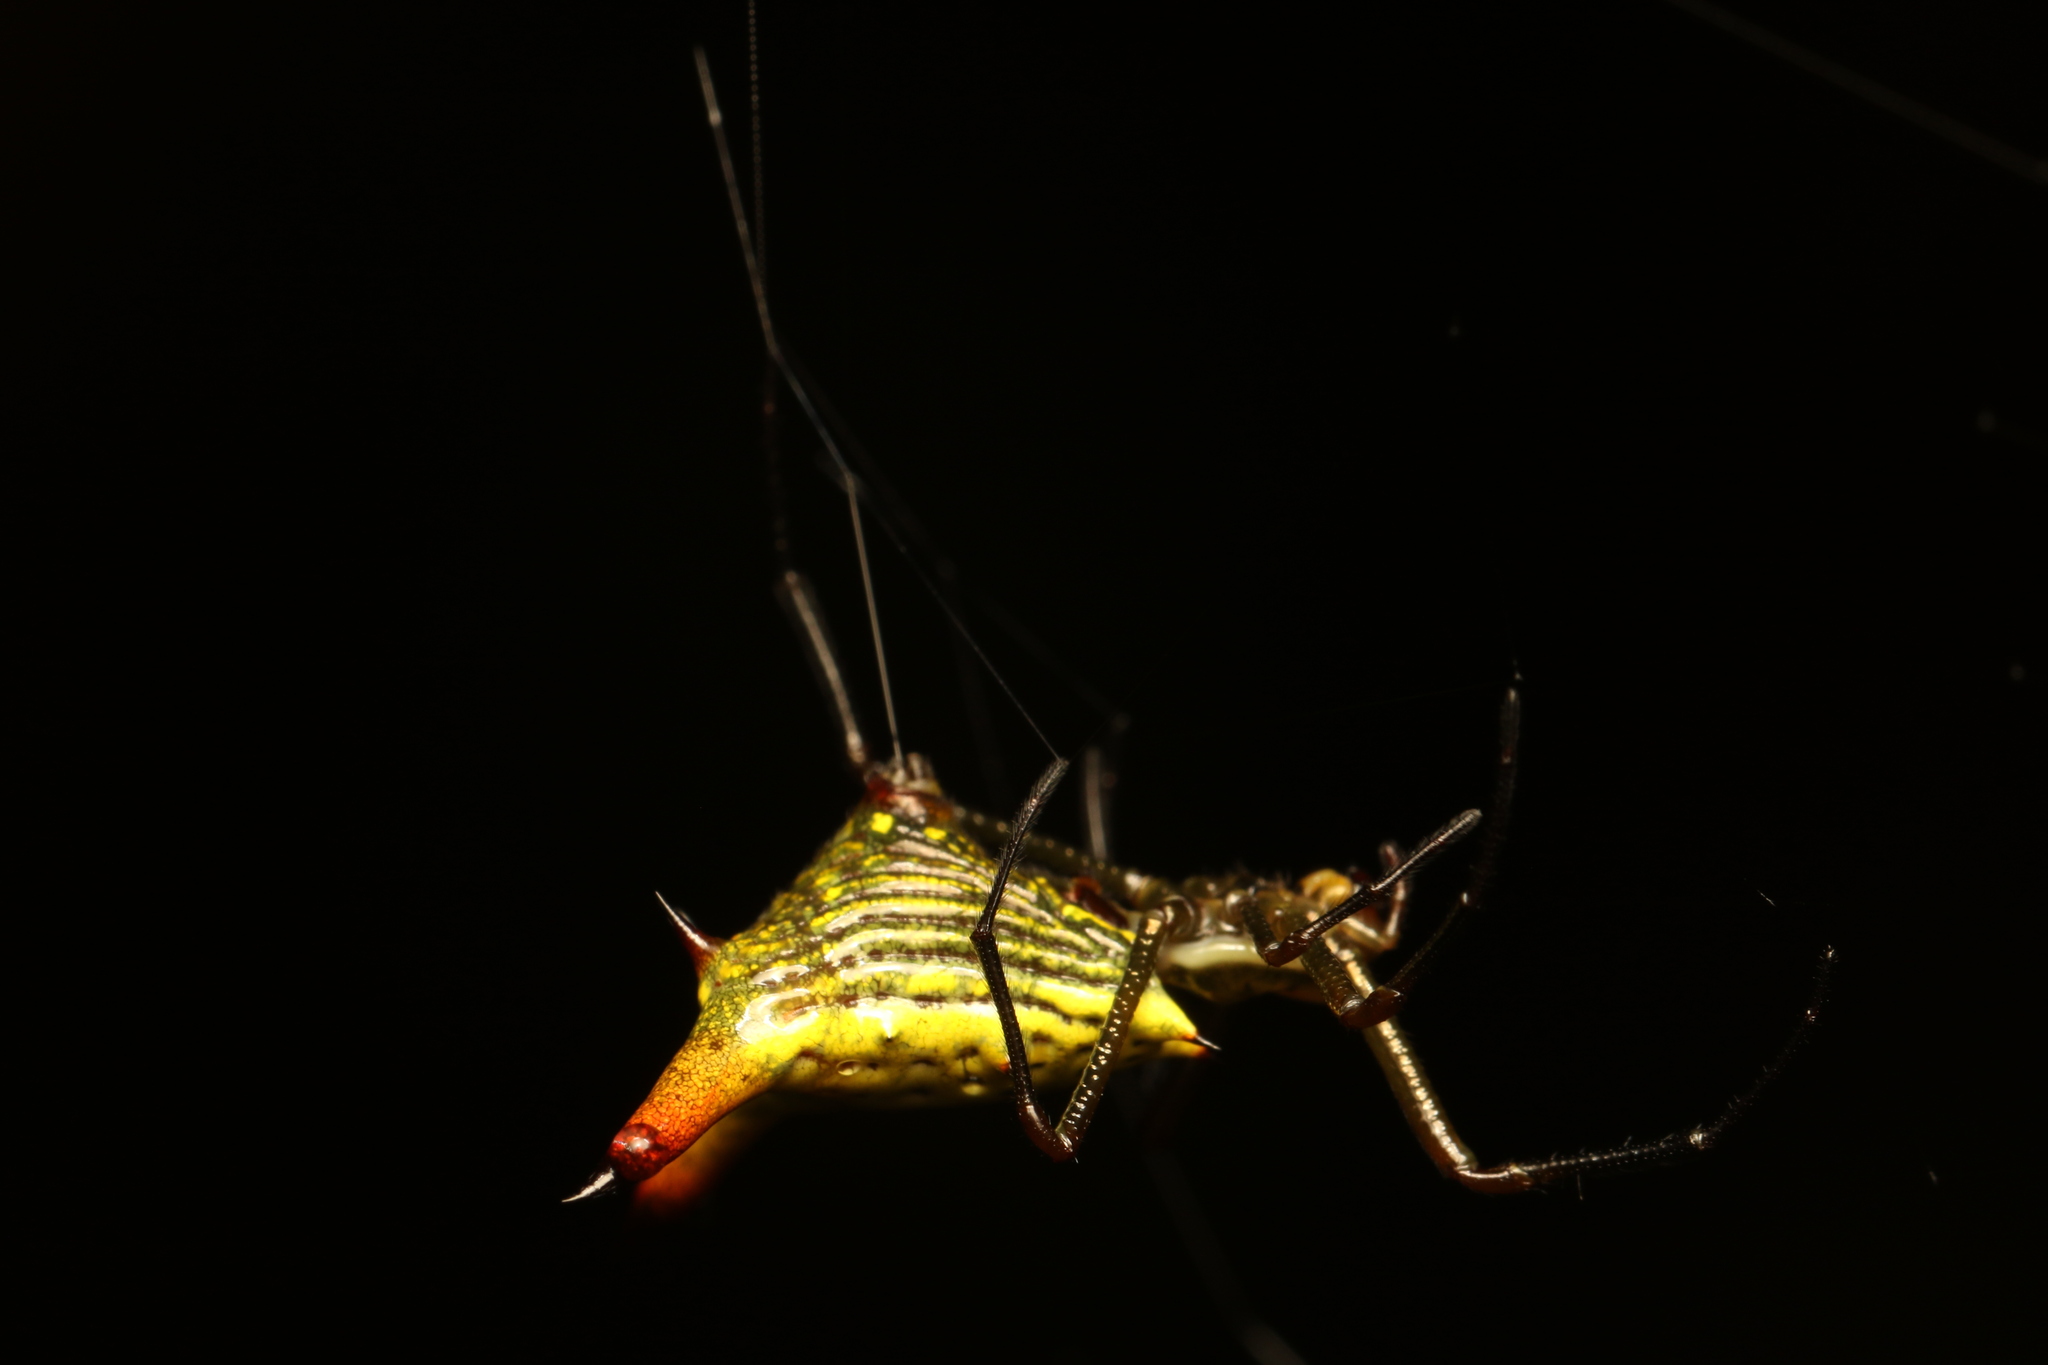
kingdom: Animalia
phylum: Arthropoda
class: Arachnida
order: Araneae
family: Araneidae
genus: Micrathena
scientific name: Micrathena crassispina
